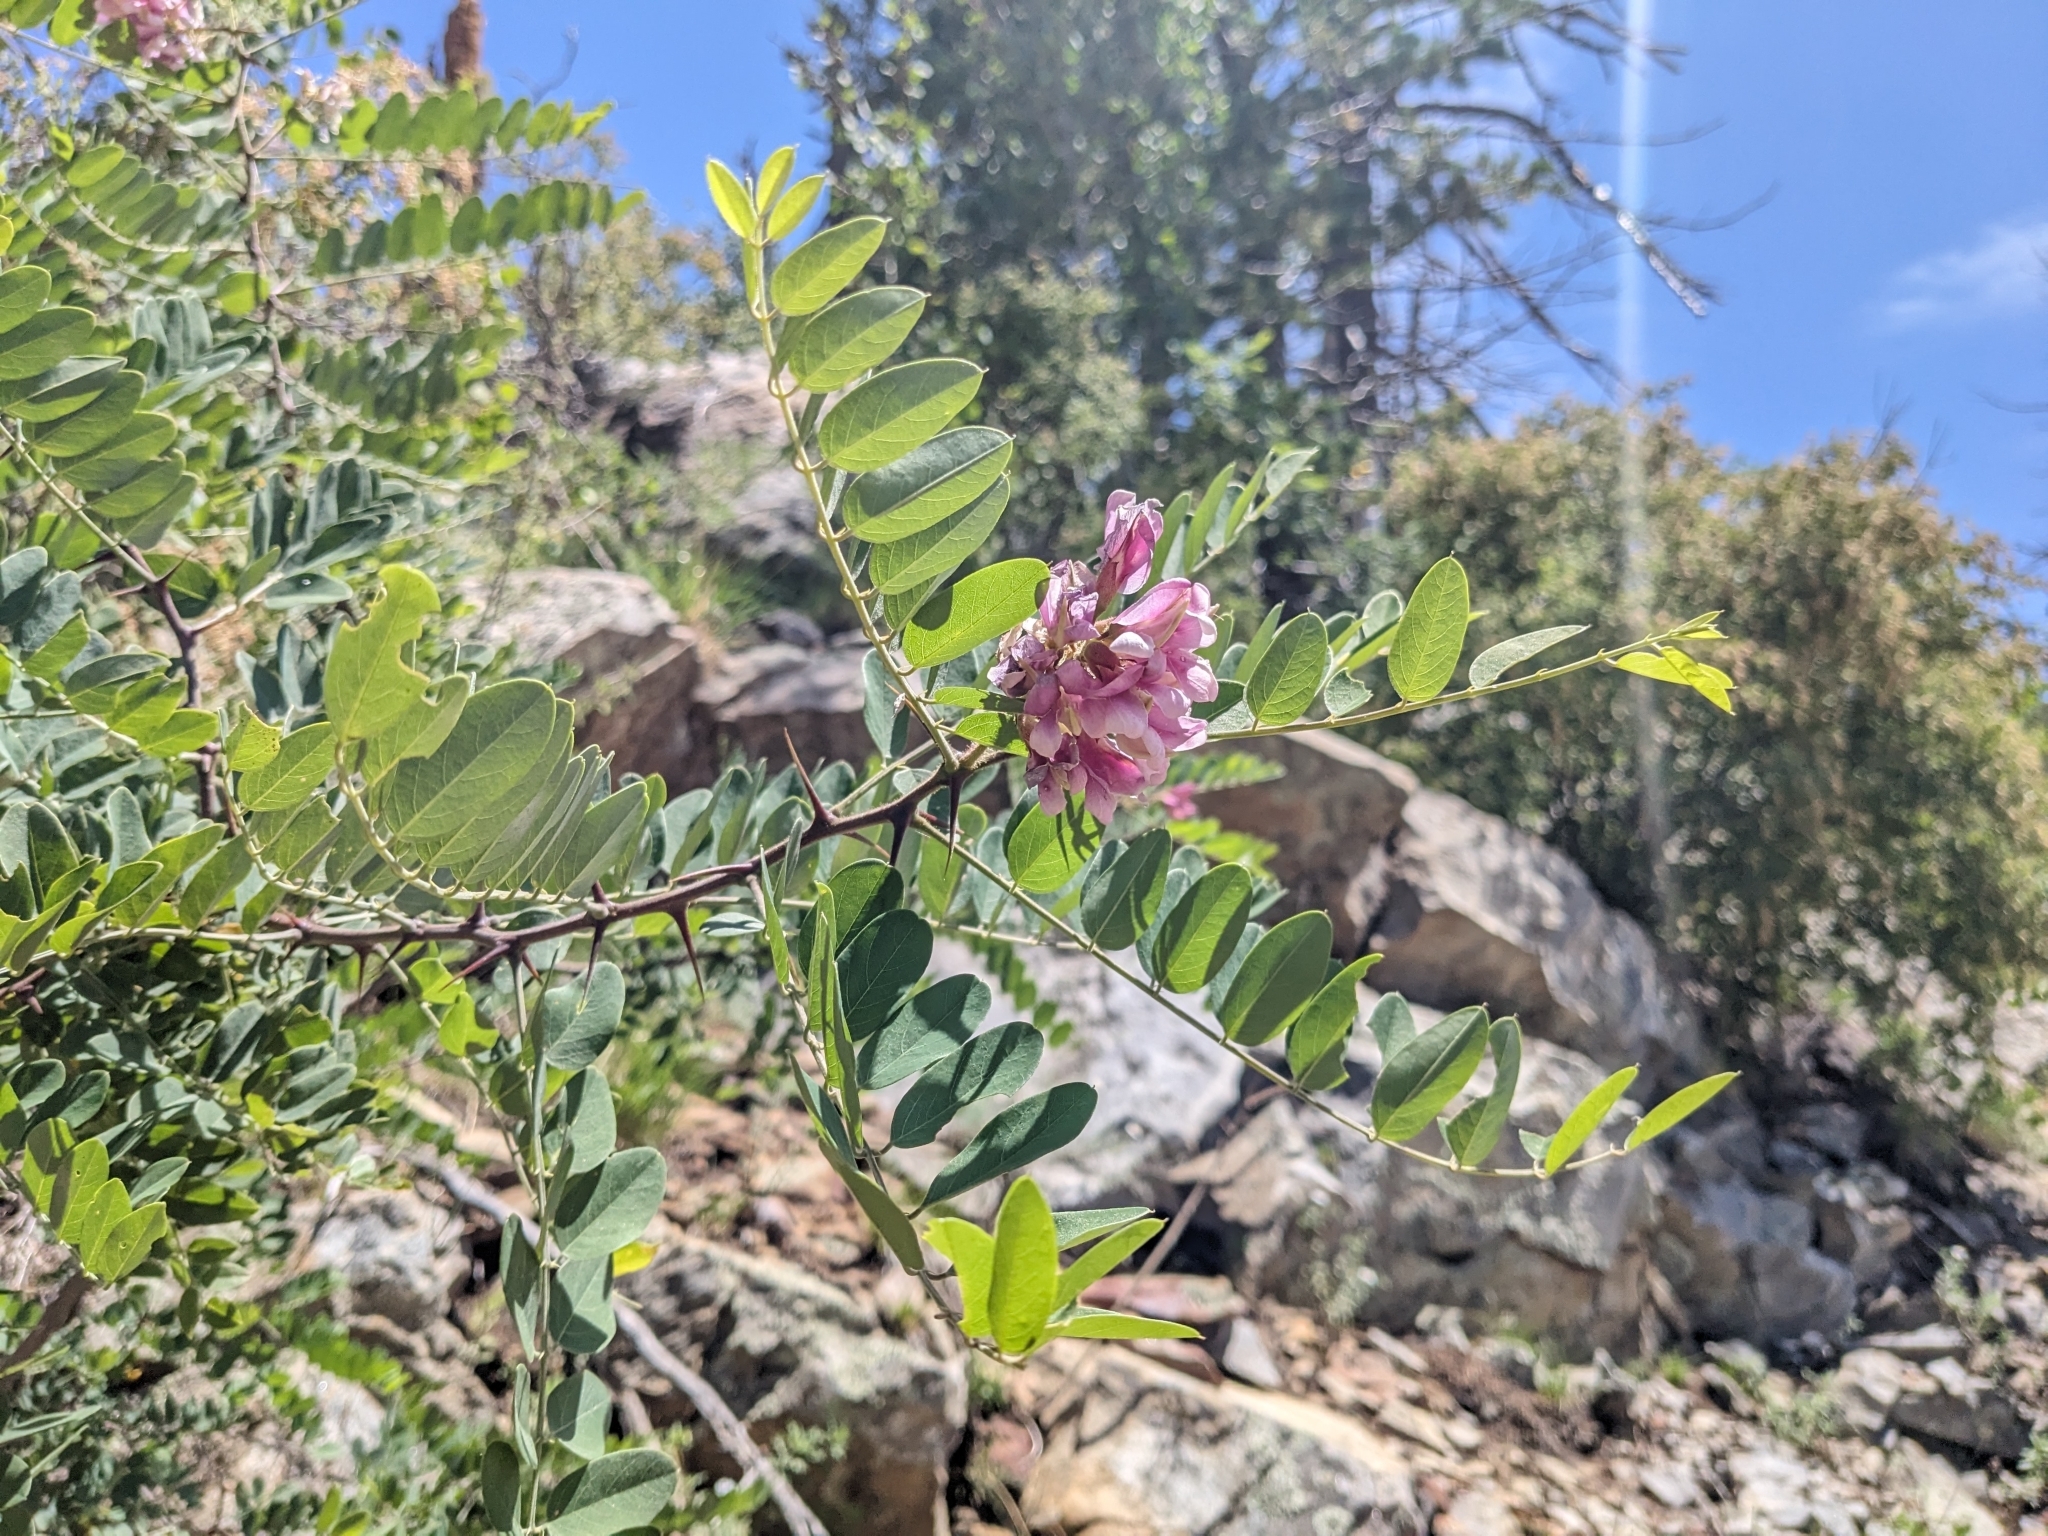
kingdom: Plantae
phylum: Tracheophyta
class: Magnoliopsida
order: Fabales
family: Fabaceae
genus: Robinia
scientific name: Robinia neomexicana
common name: New mexico locust
